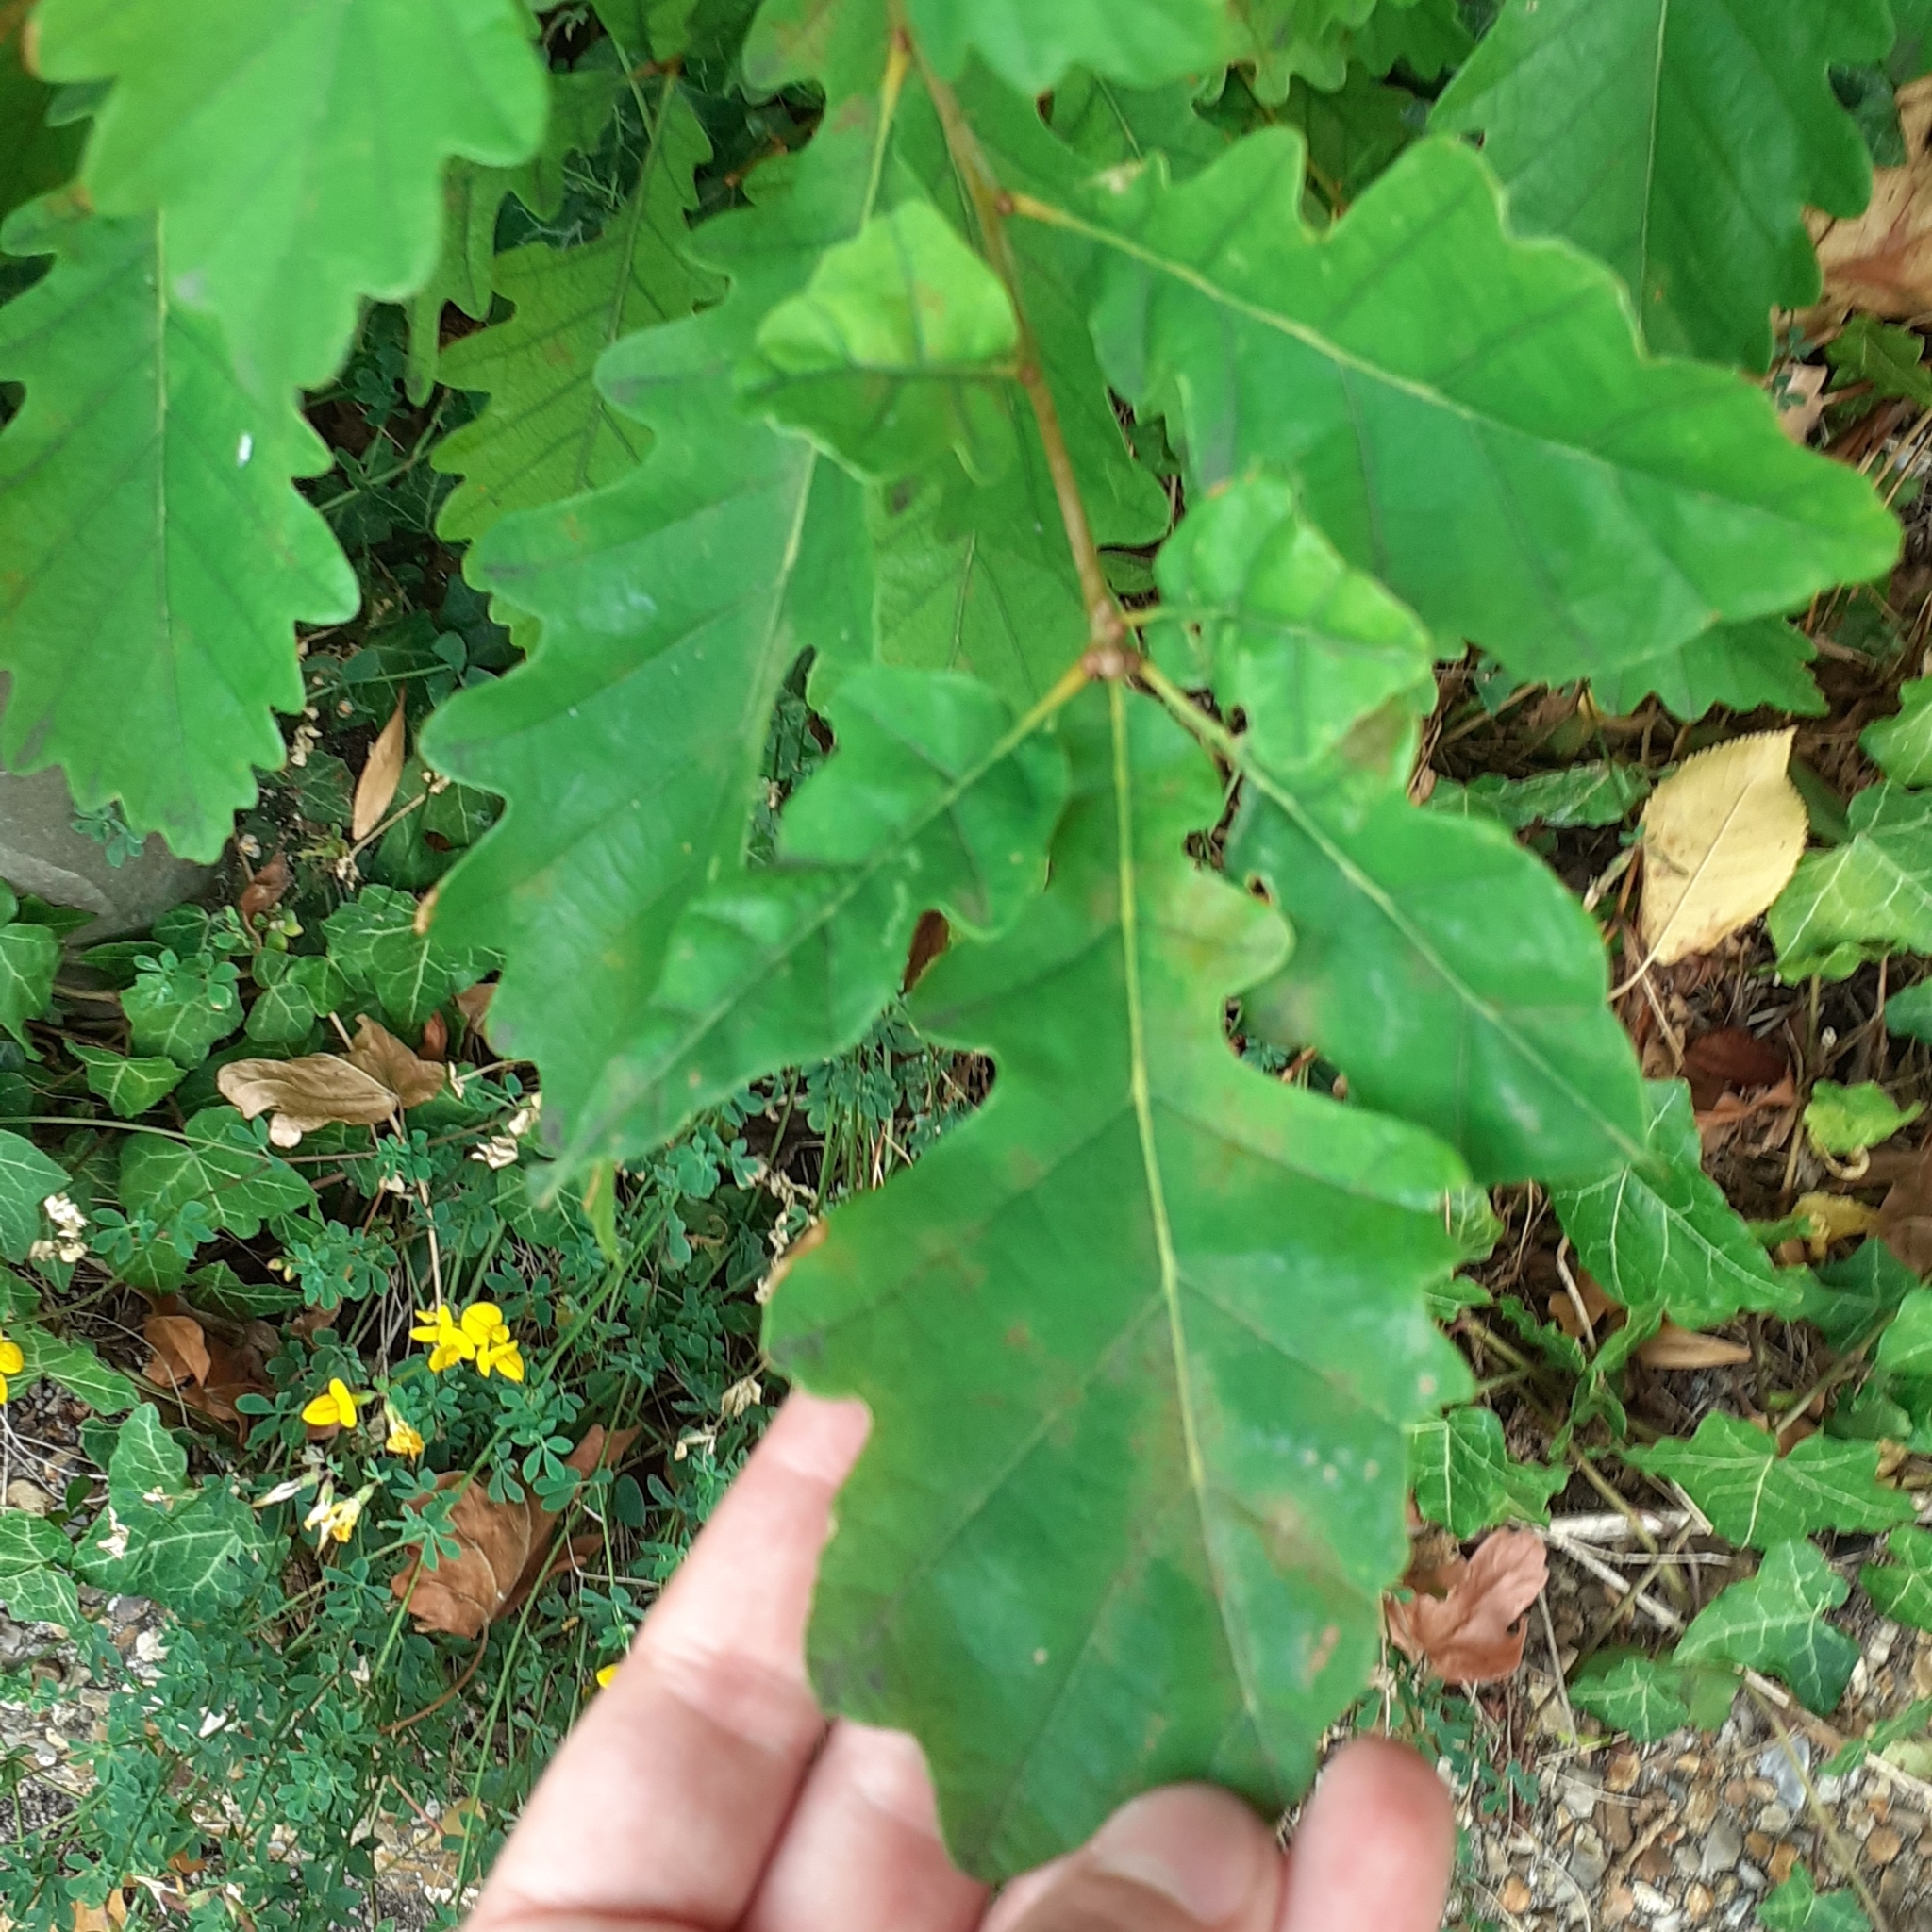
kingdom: Plantae
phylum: Tracheophyta
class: Magnoliopsida
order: Fagales
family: Fagaceae
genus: Quercus
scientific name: Quercus petraea
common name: Sessile oak
